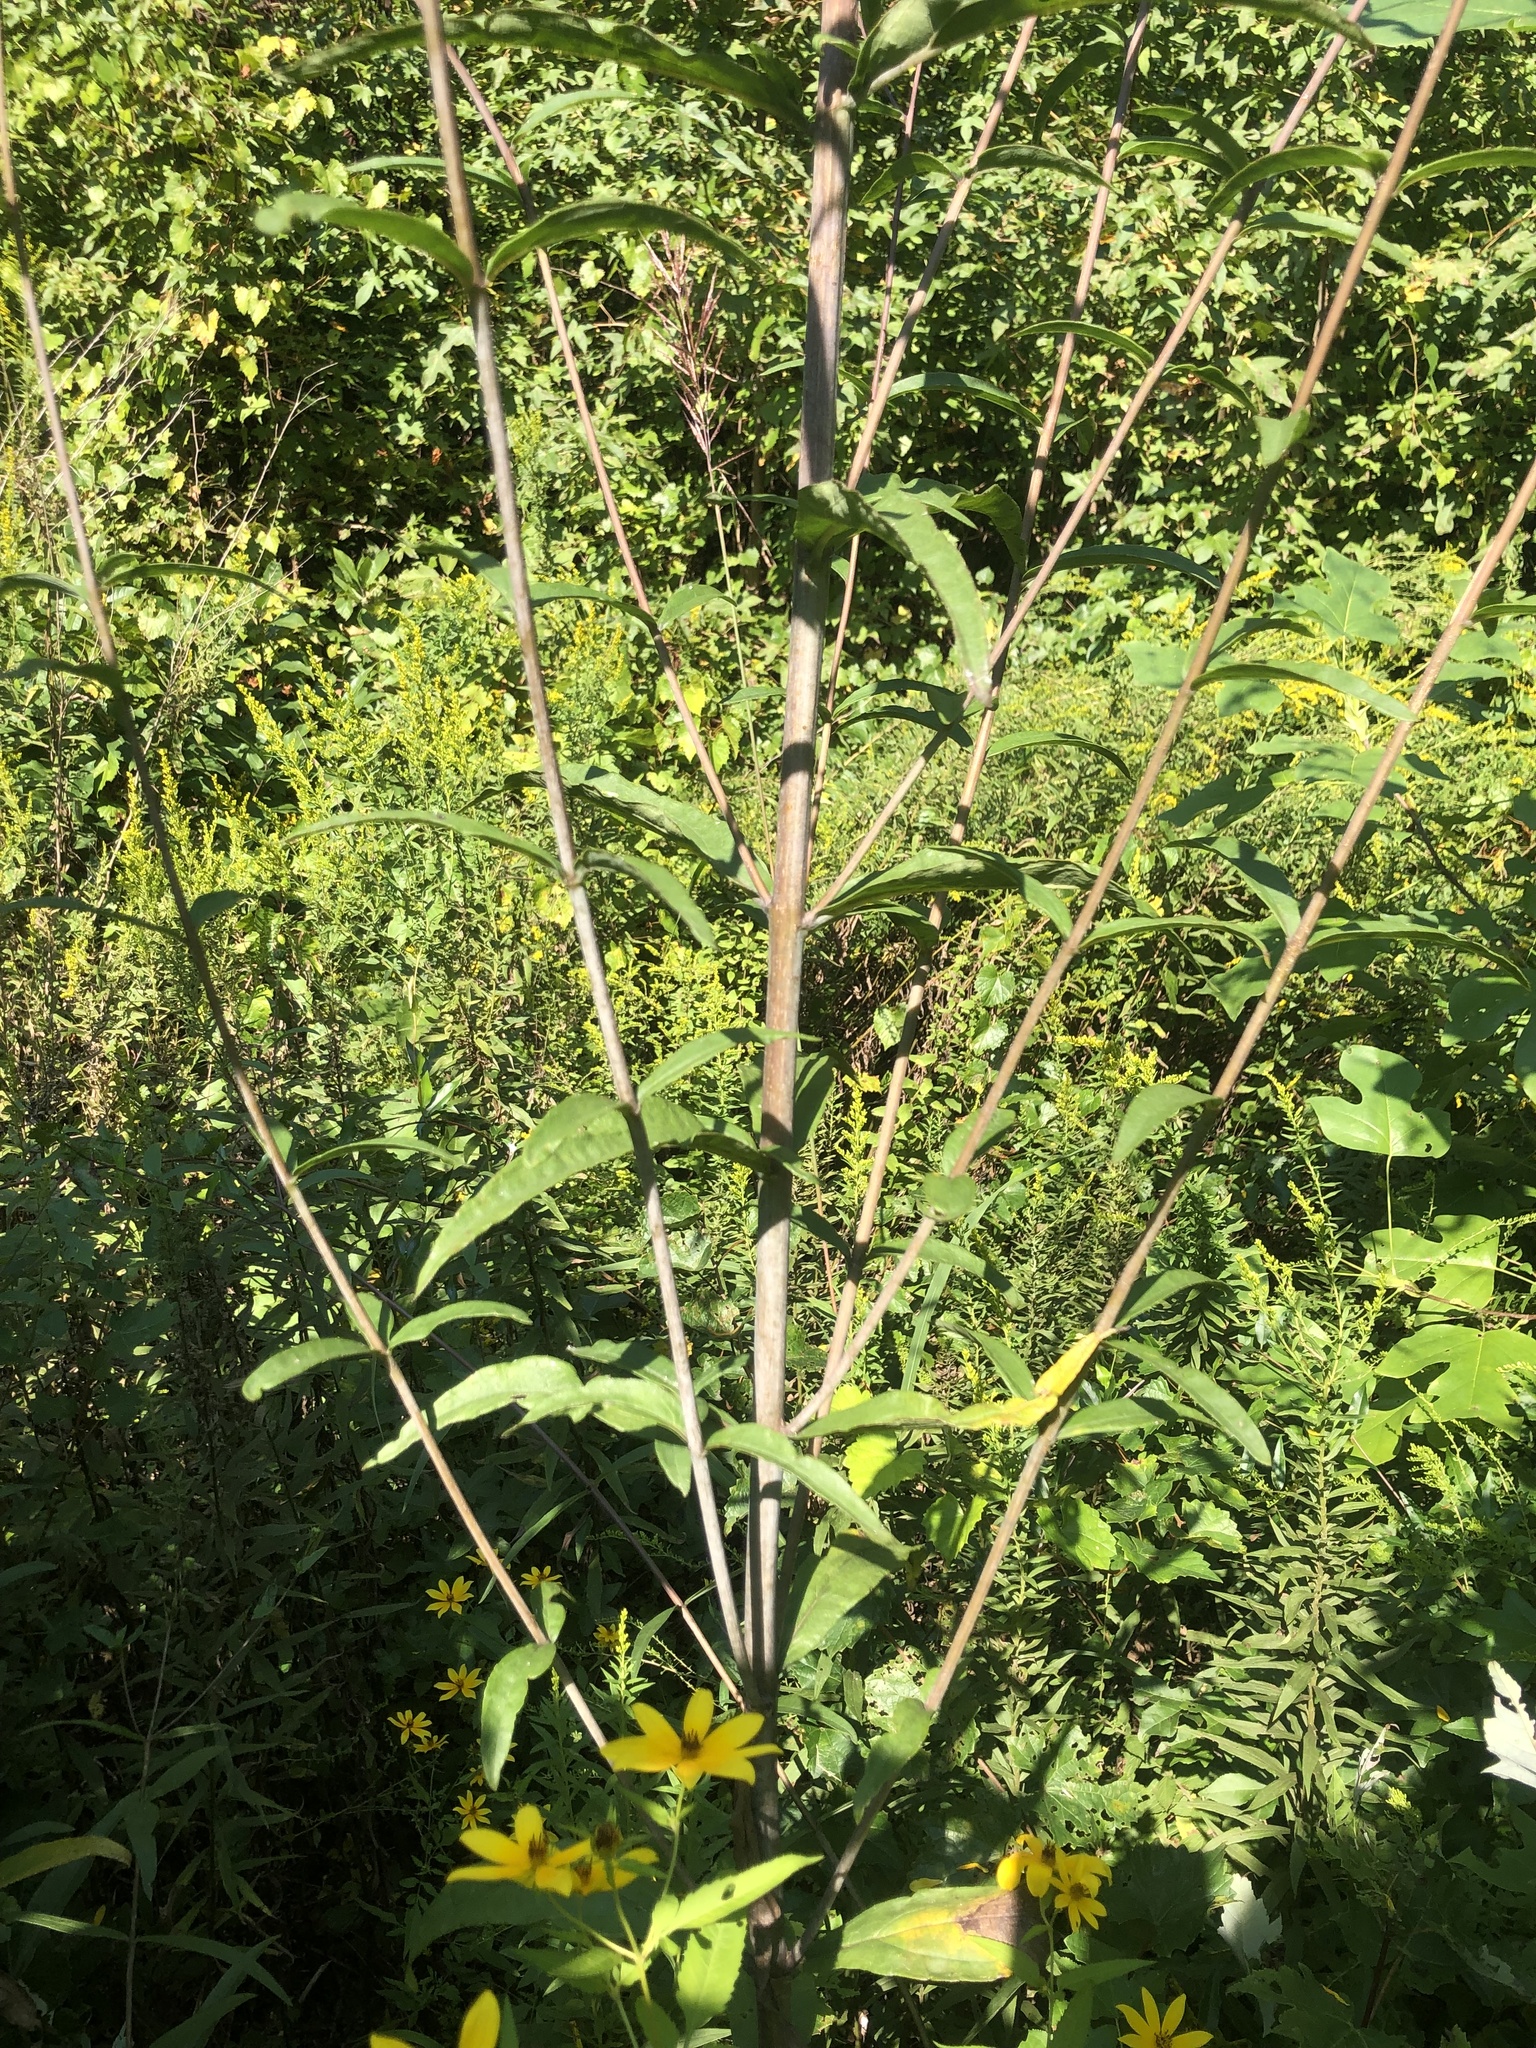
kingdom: Plantae
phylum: Tracheophyta
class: Magnoliopsida
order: Asterales
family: Asteraceae
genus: Helianthus
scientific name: Helianthus laevigatus
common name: Smooth sunflower
